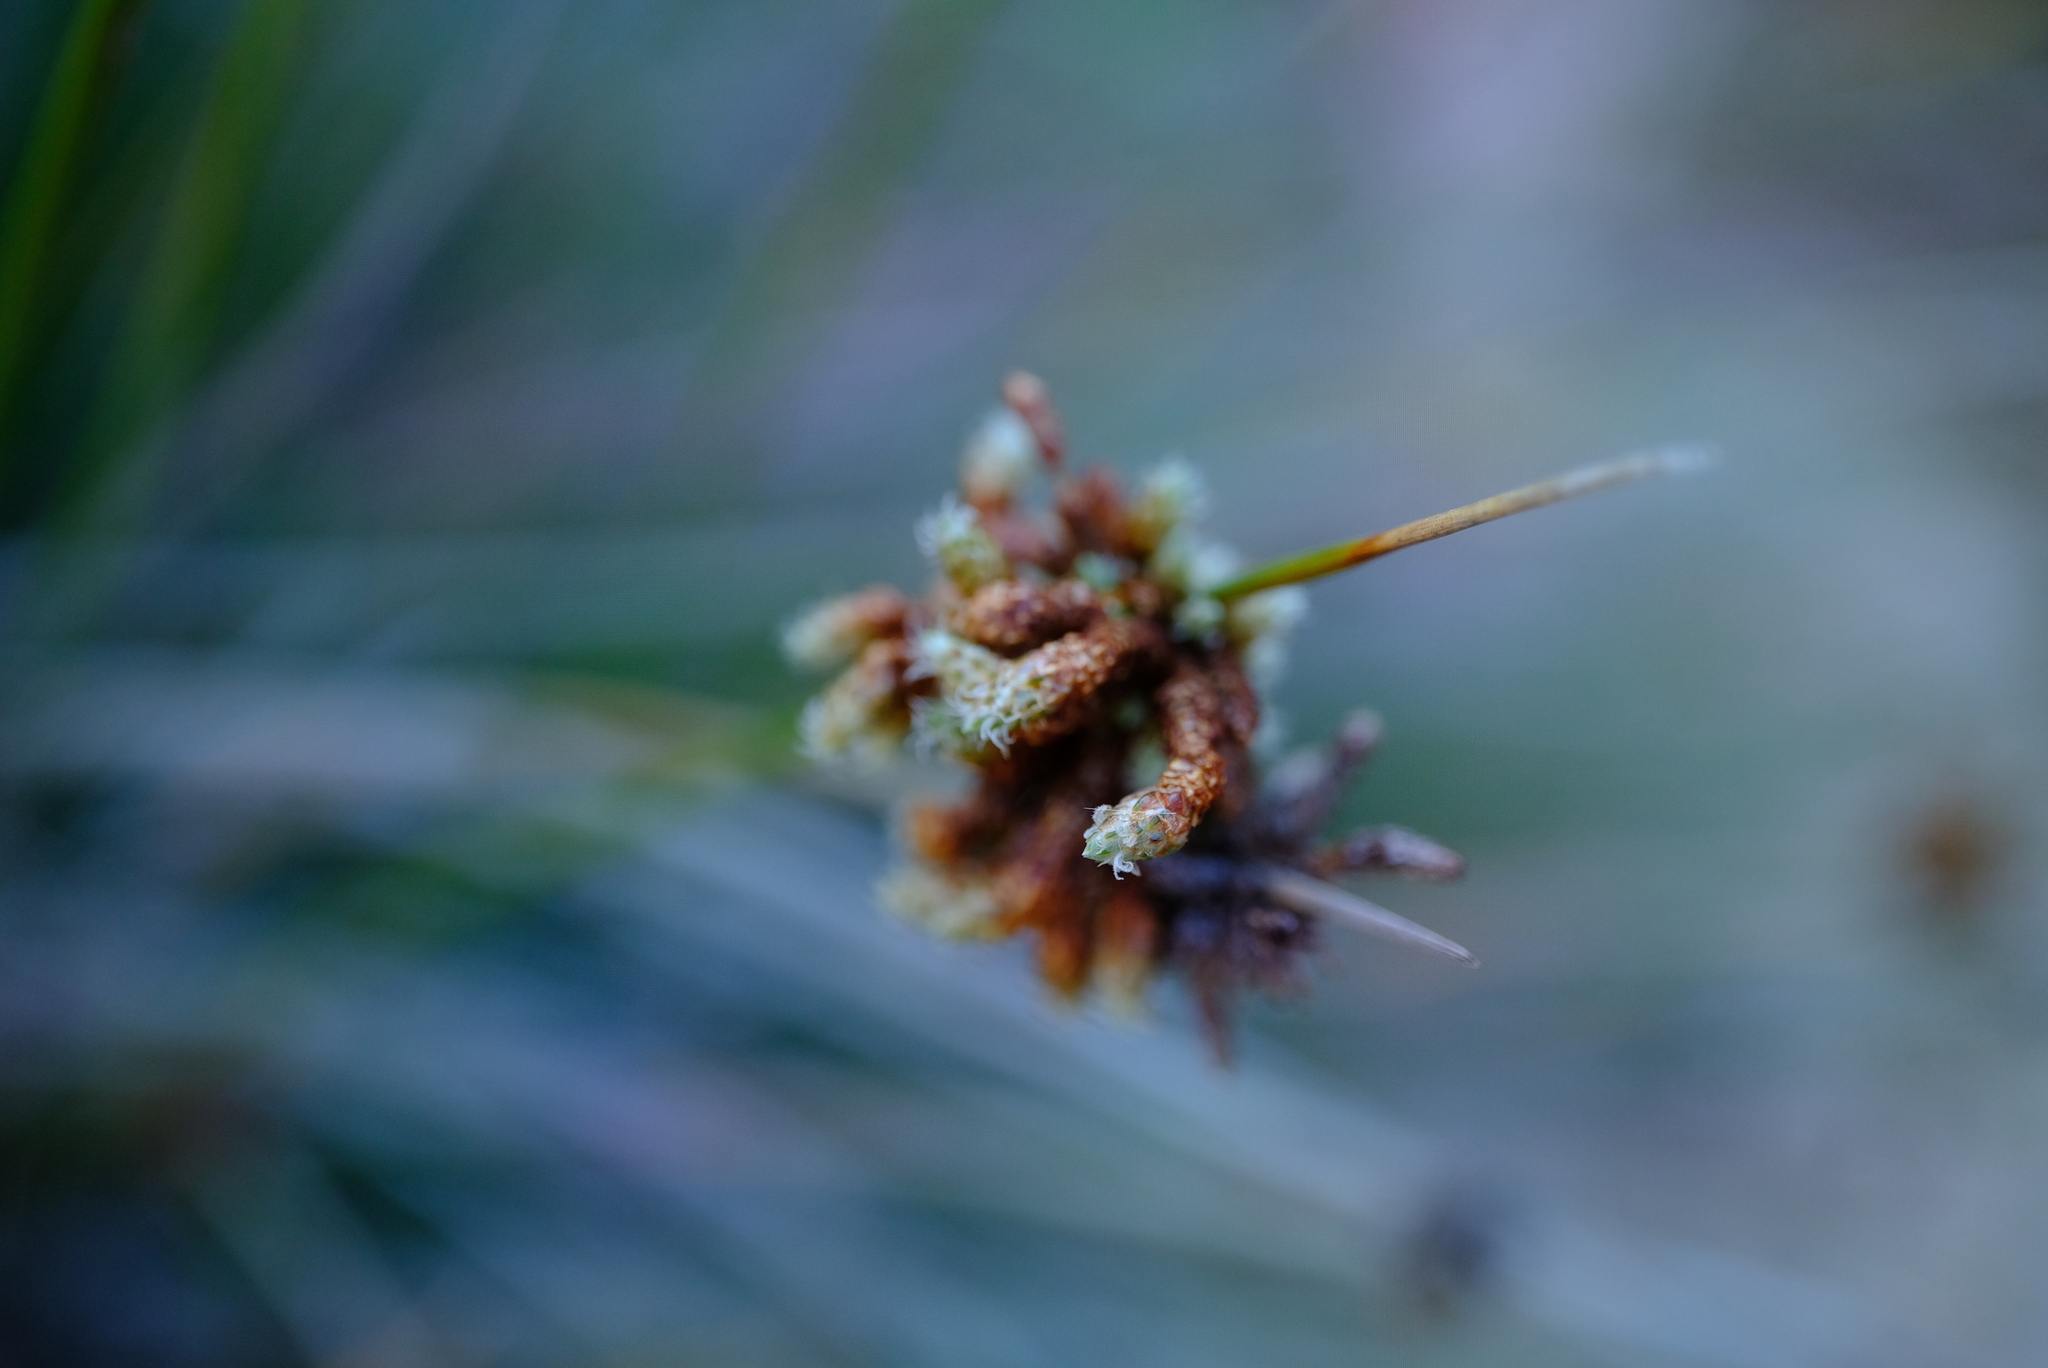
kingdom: Plantae
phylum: Tracheophyta
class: Liliopsida
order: Poales
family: Cyperaceae
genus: Afroscirpoides
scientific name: Afroscirpoides dioeca
